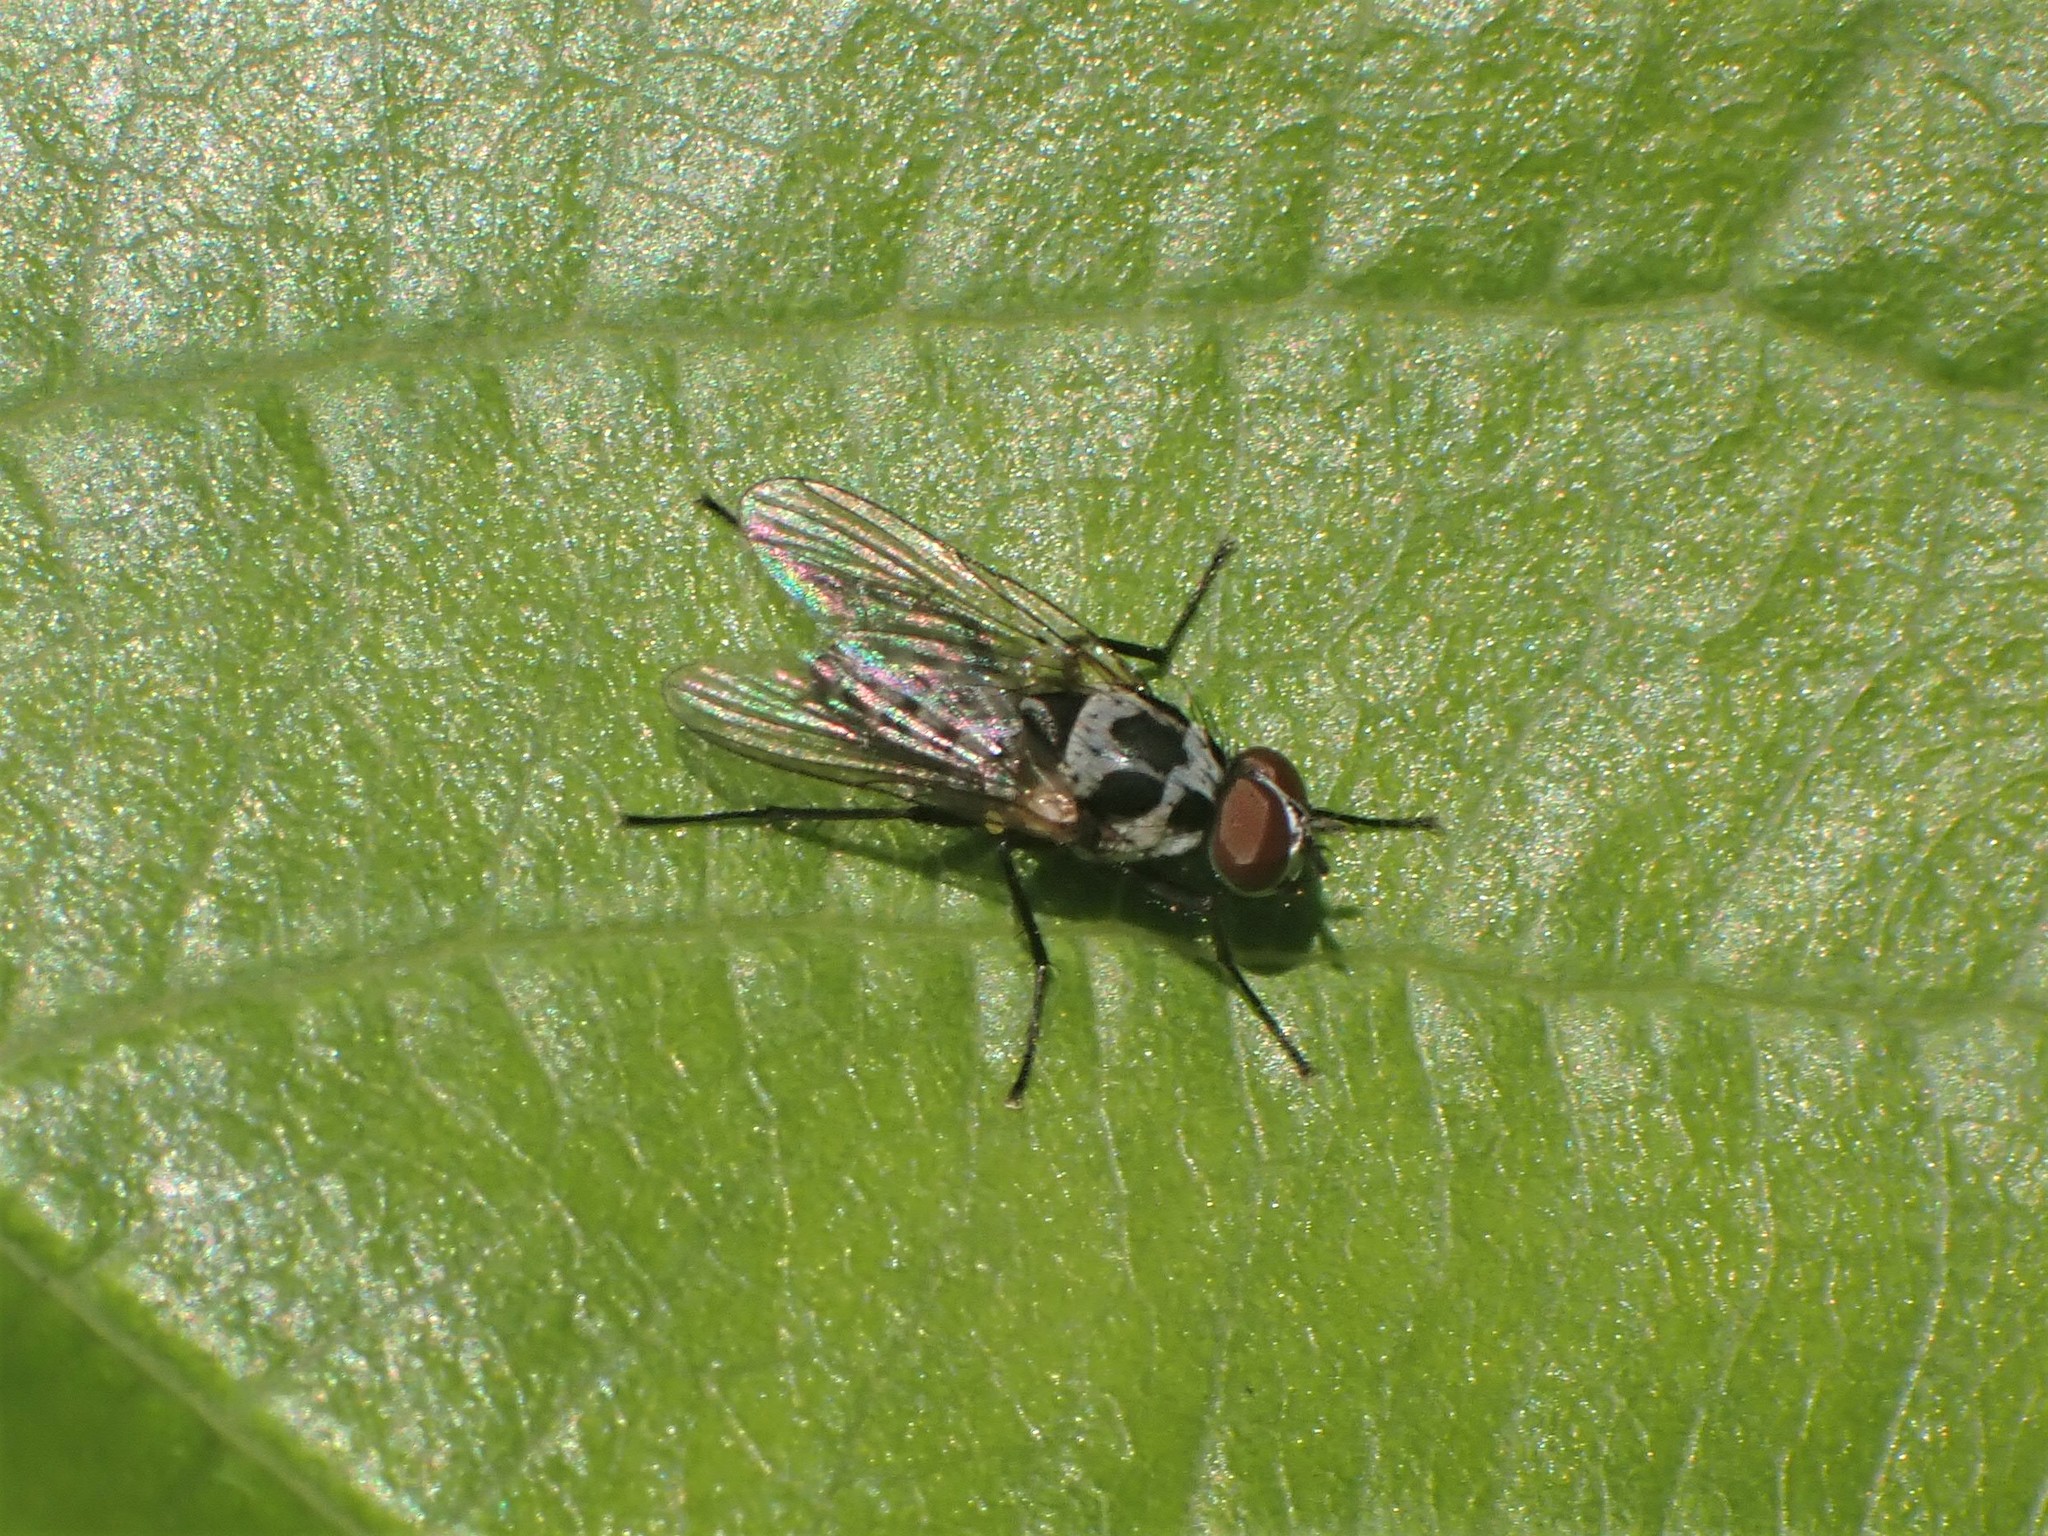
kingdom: Animalia
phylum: Arthropoda
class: Insecta
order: Diptera
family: Anthomyiidae
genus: Anthomyia
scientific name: Anthomyia procellaris
